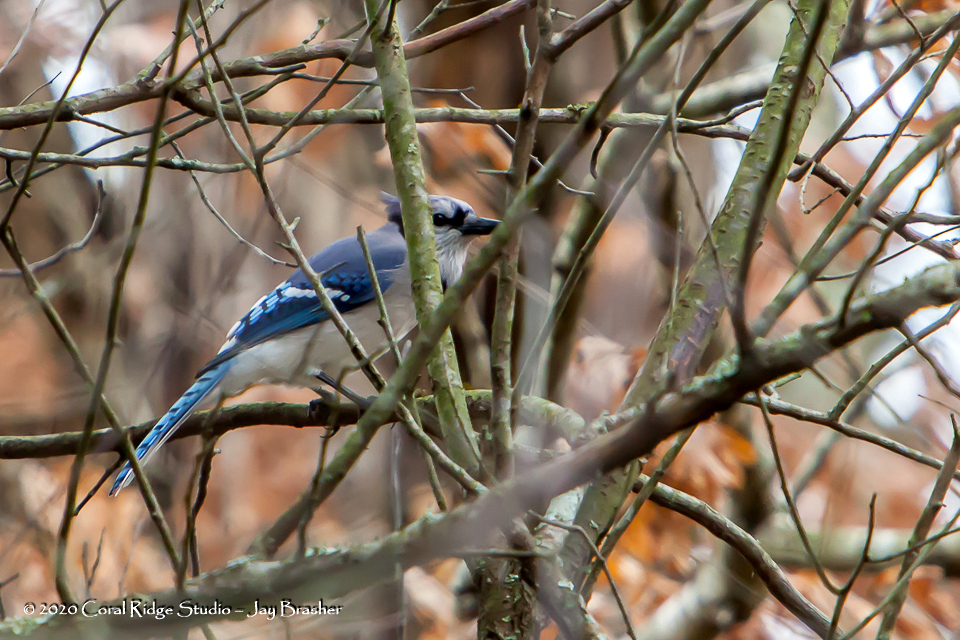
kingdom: Animalia
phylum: Chordata
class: Aves
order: Passeriformes
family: Corvidae
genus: Cyanocitta
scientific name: Cyanocitta cristata
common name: Blue jay
